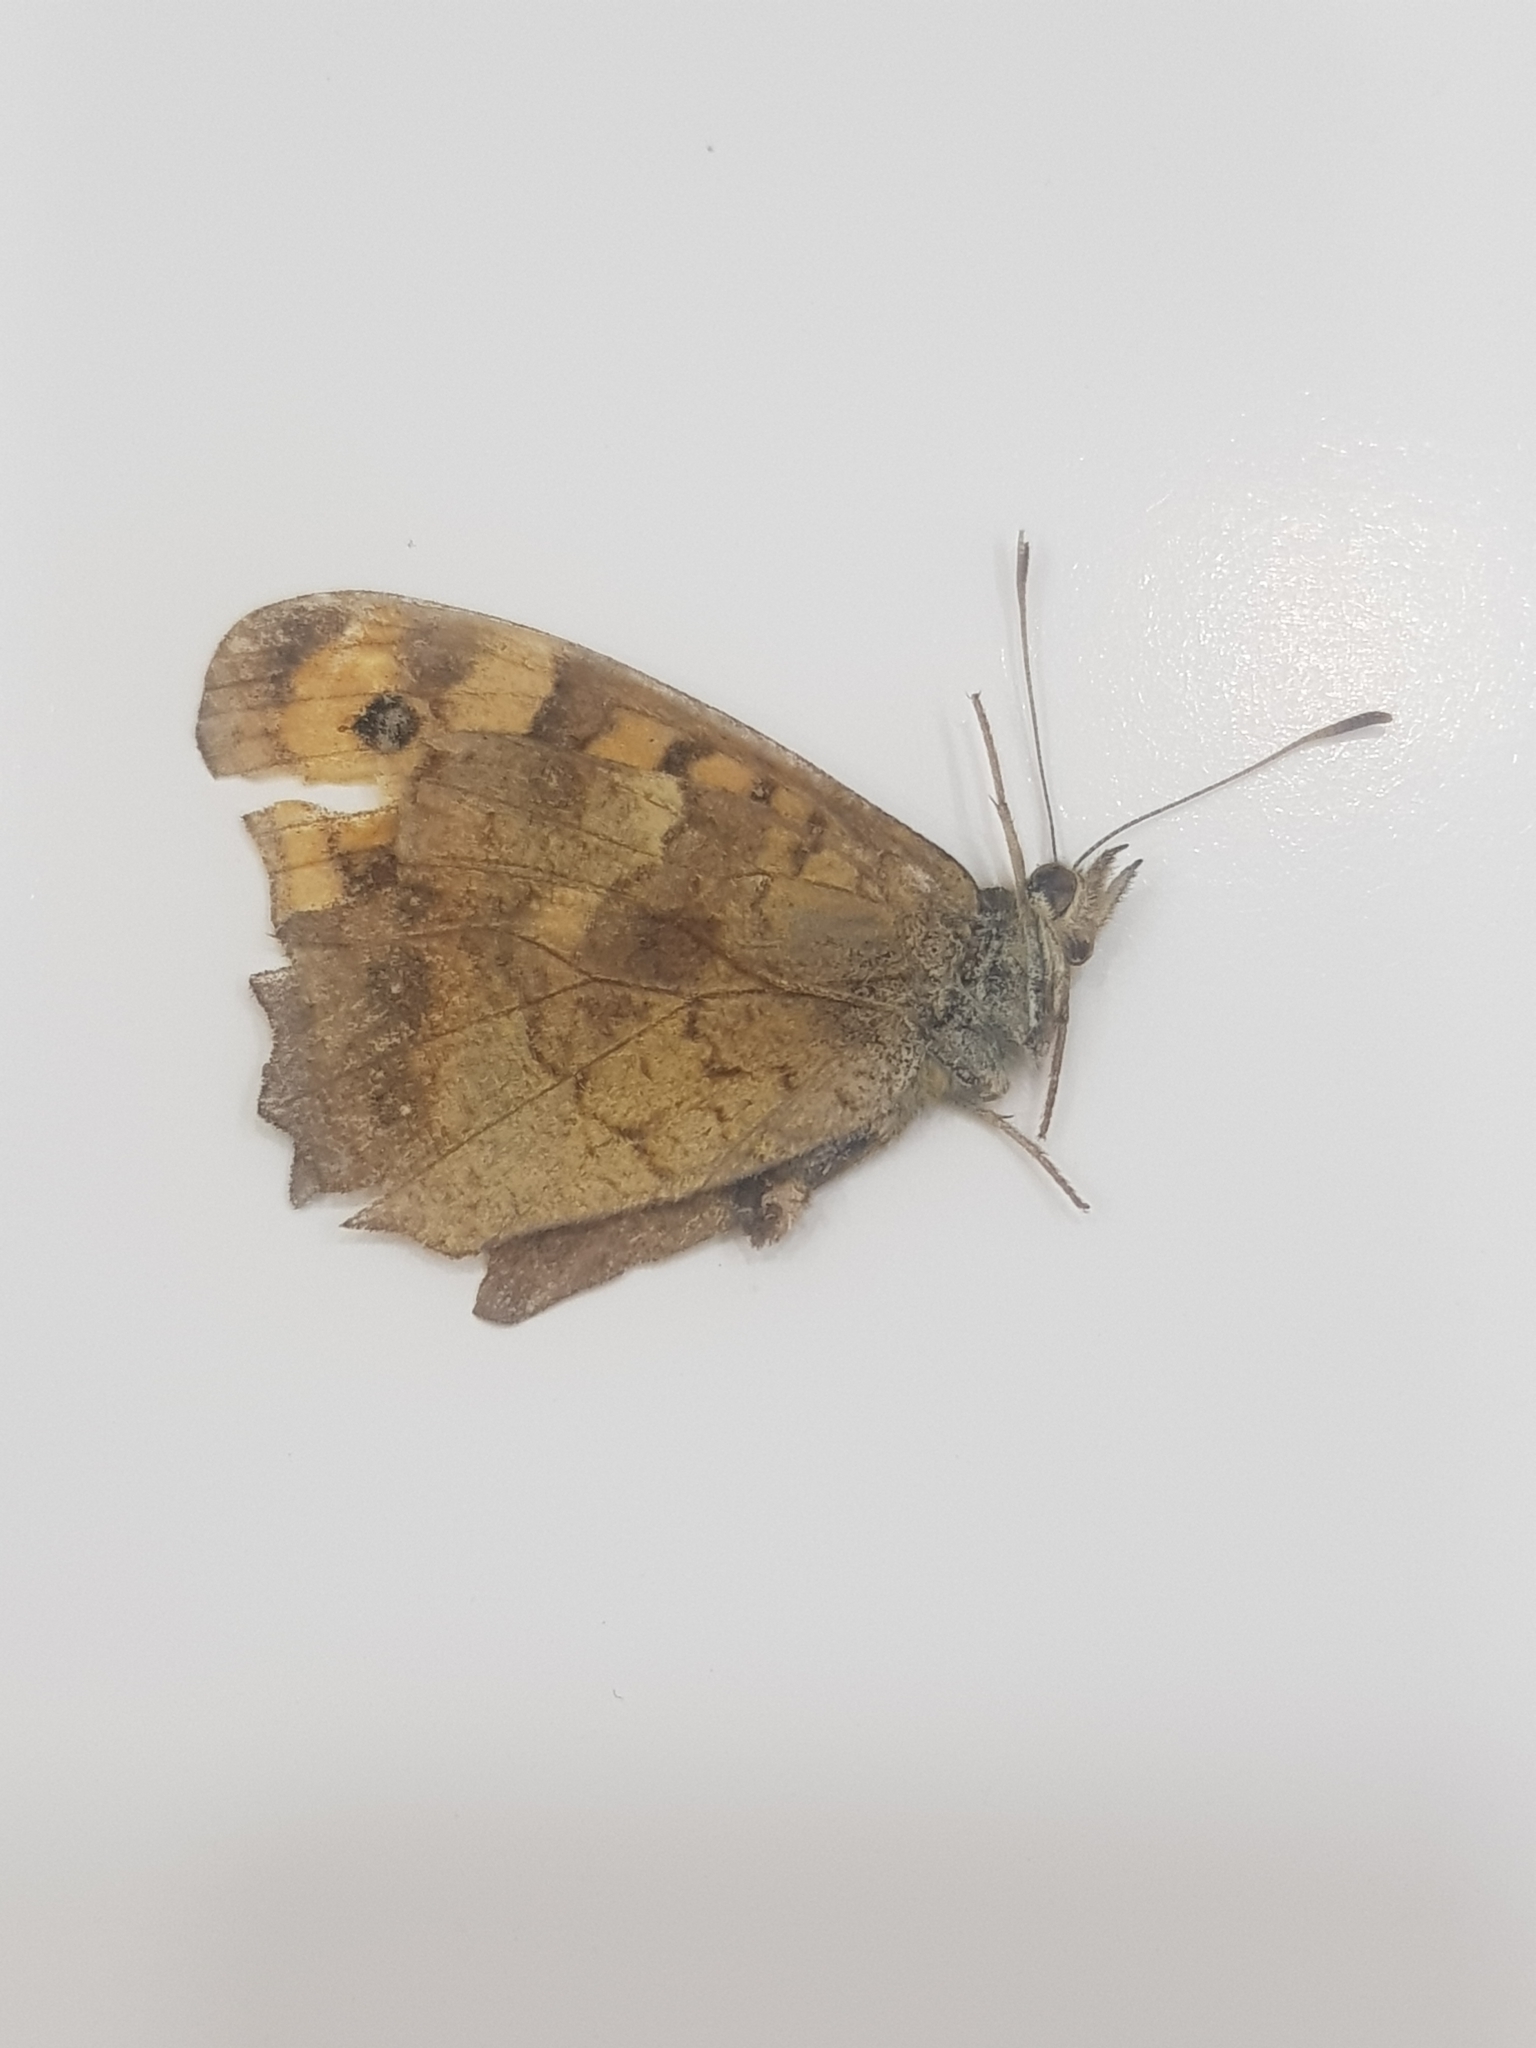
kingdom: Animalia
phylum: Arthropoda
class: Insecta
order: Lepidoptera
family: Nymphalidae
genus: Pararge
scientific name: Pararge aegeria
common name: Speckled wood
